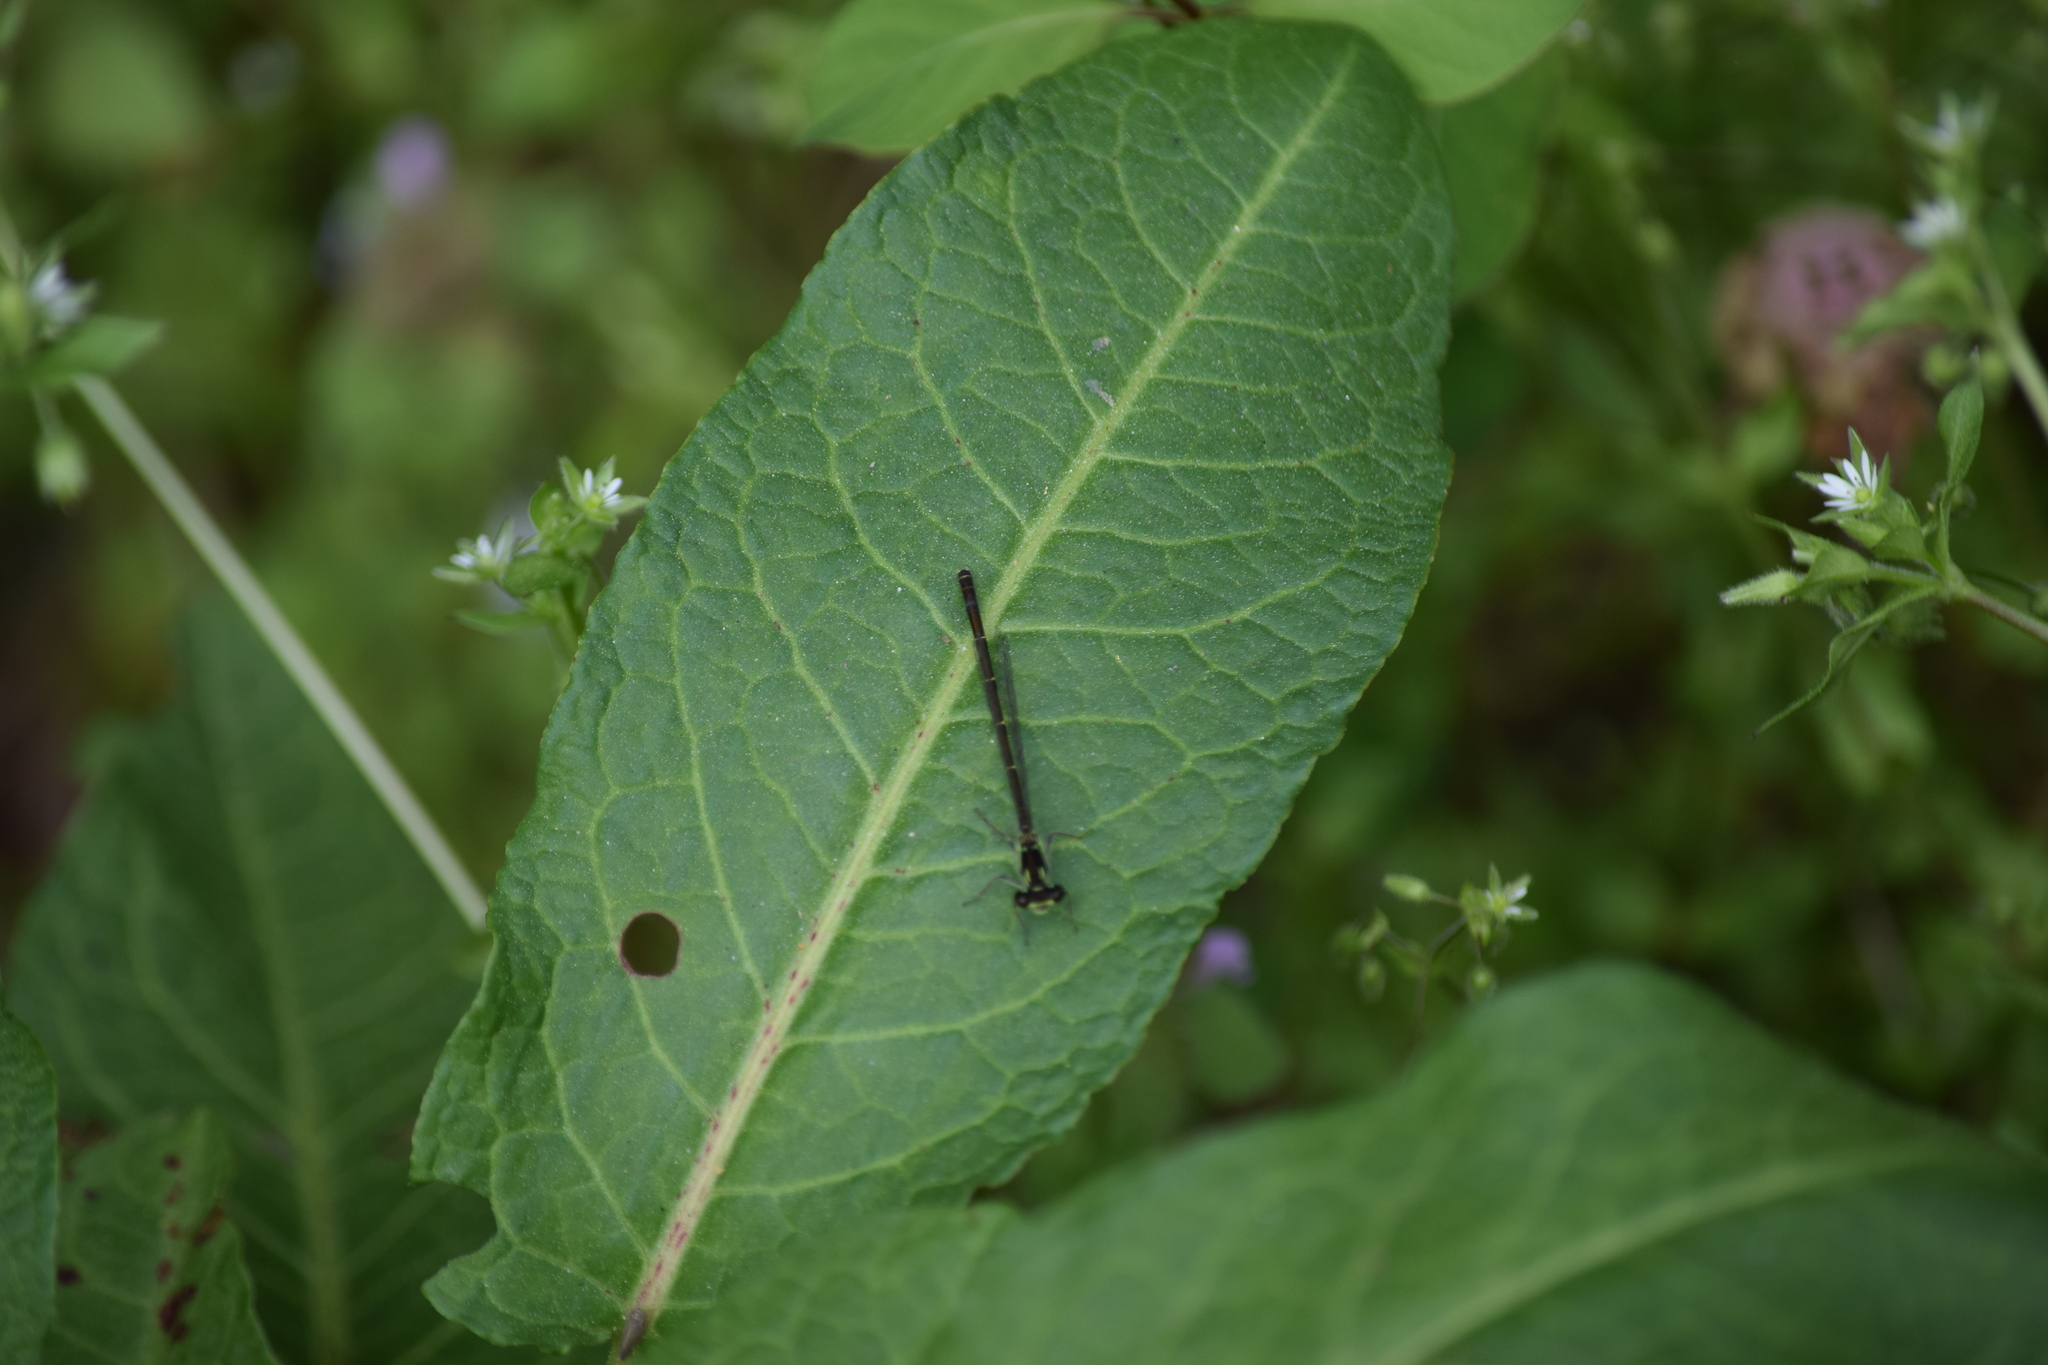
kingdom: Animalia
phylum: Arthropoda
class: Insecta
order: Odonata
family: Coenagrionidae
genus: Ischnura
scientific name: Ischnura posita
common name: Fragile forktail
